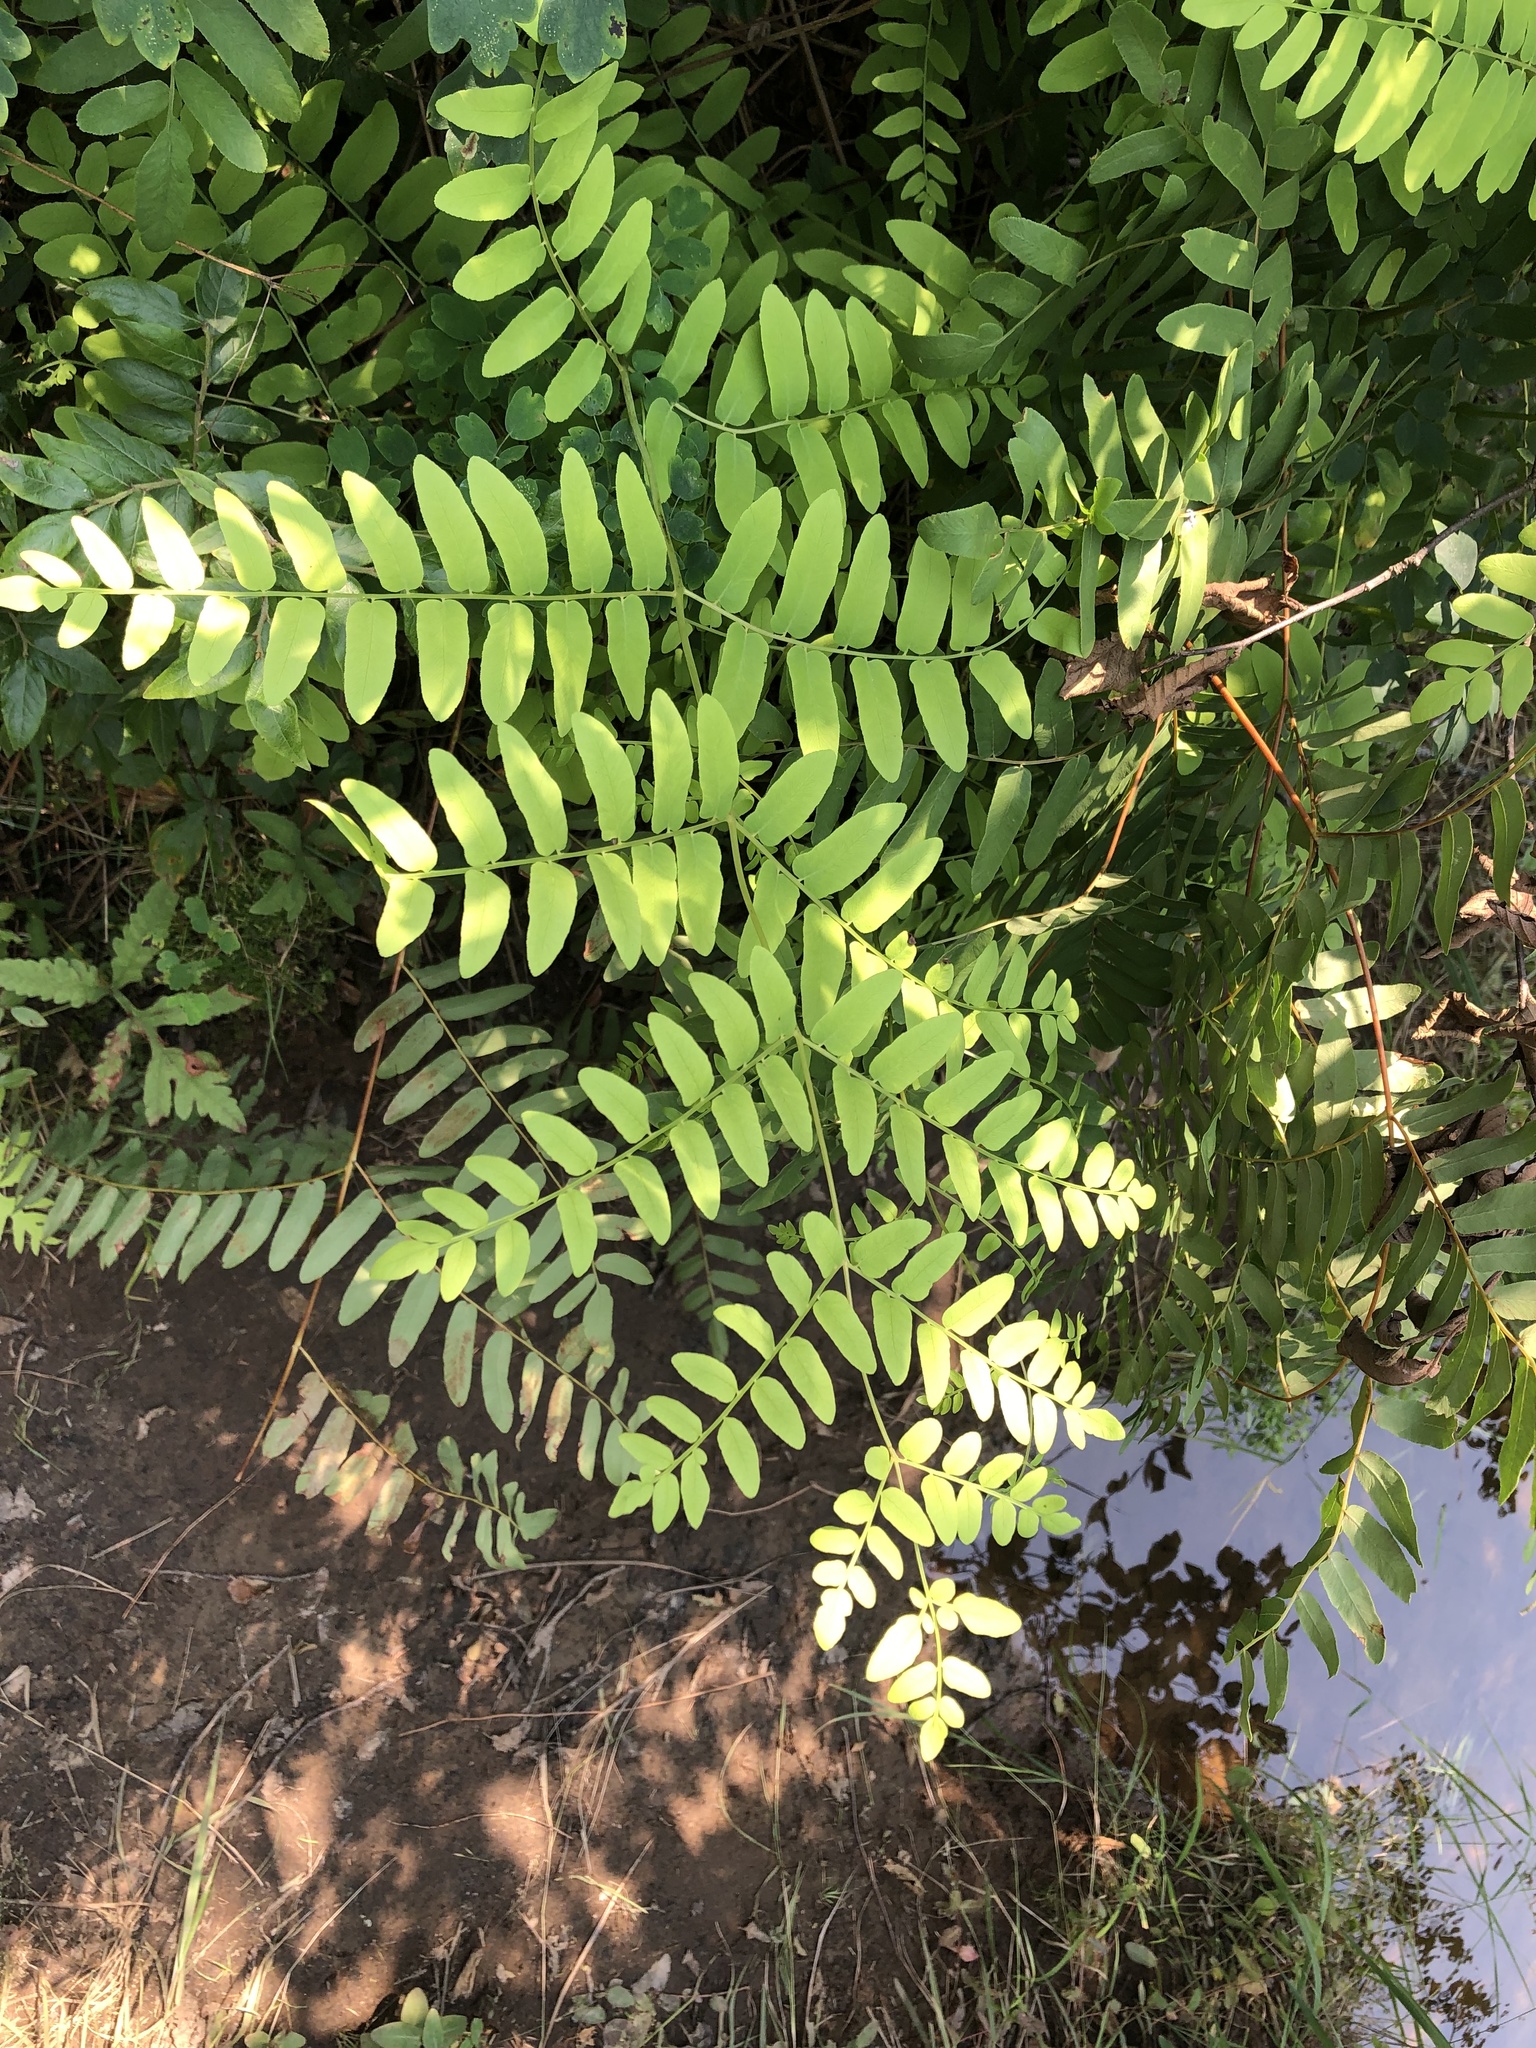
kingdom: Plantae
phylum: Tracheophyta
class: Polypodiopsida
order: Osmundales
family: Osmundaceae
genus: Osmunda
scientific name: Osmunda spectabilis
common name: American royal fern
